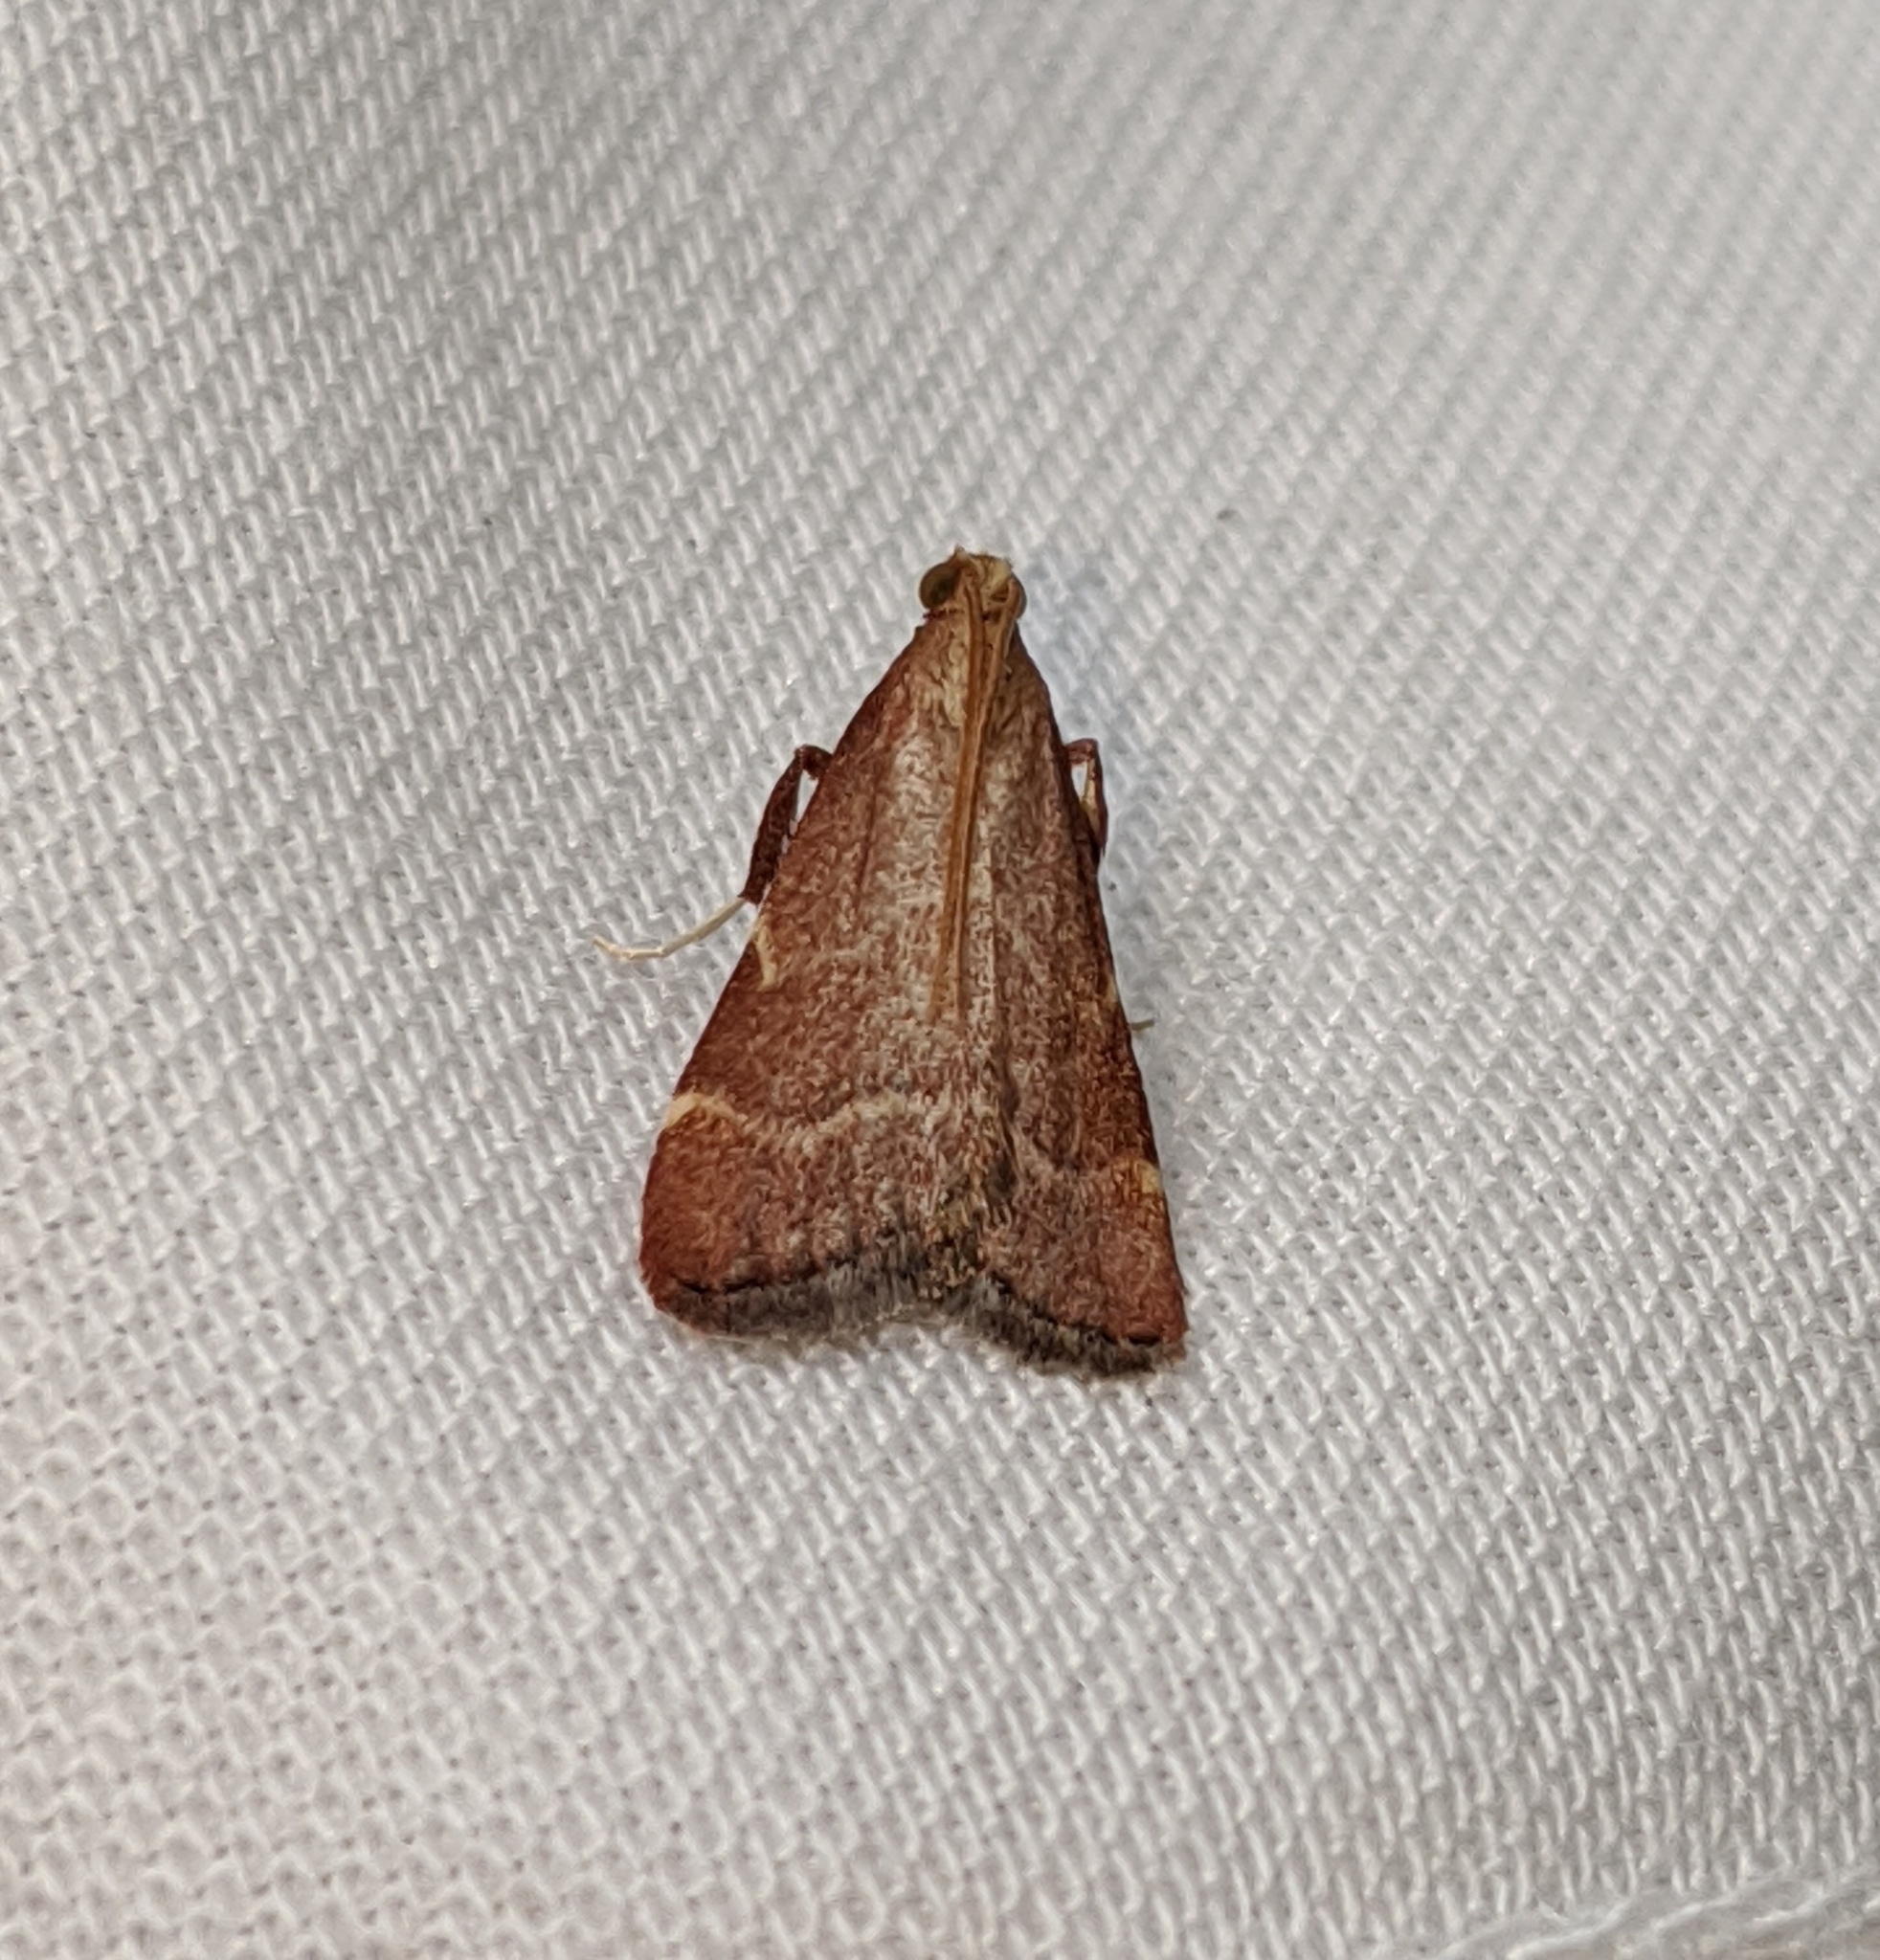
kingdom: Animalia
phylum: Arthropoda
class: Insecta
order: Lepidoptera
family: Pyralidae
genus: Arta
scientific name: Arta epicoenalis
